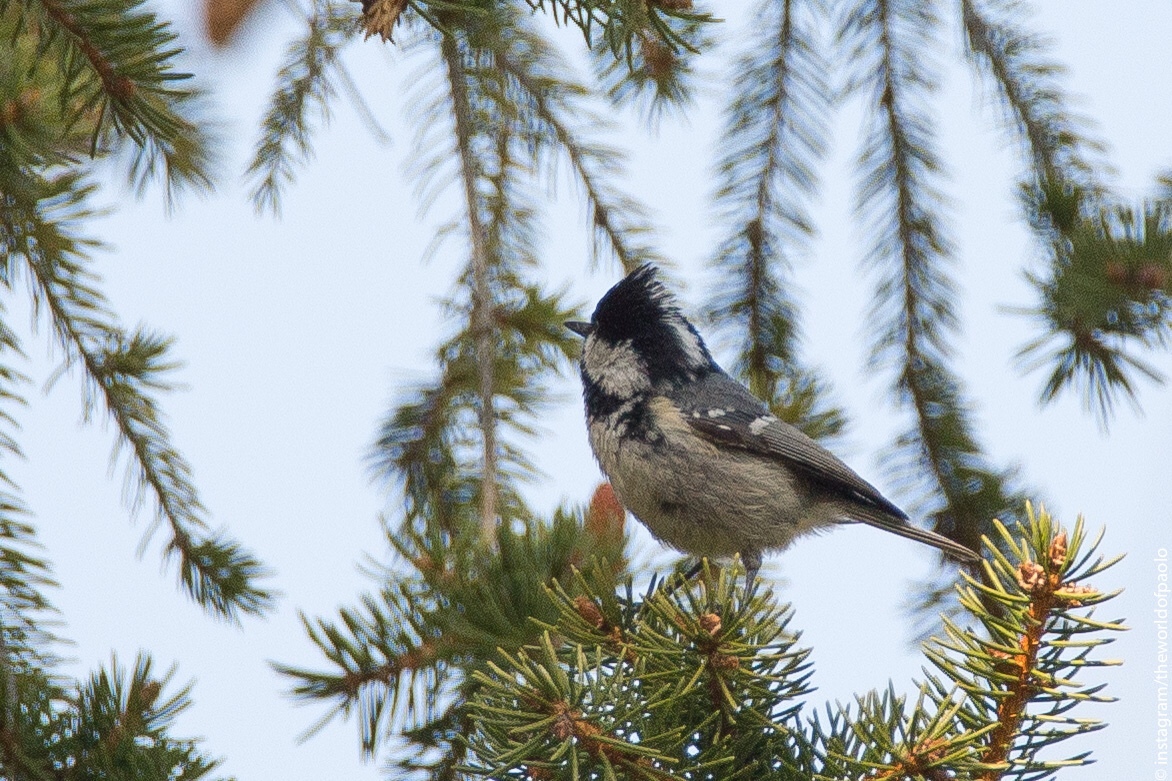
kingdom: Animalia
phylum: Chordata
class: Aves
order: Passeriformes
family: Paridae
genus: Periparus
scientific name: Periparus ater
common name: Coal tit
